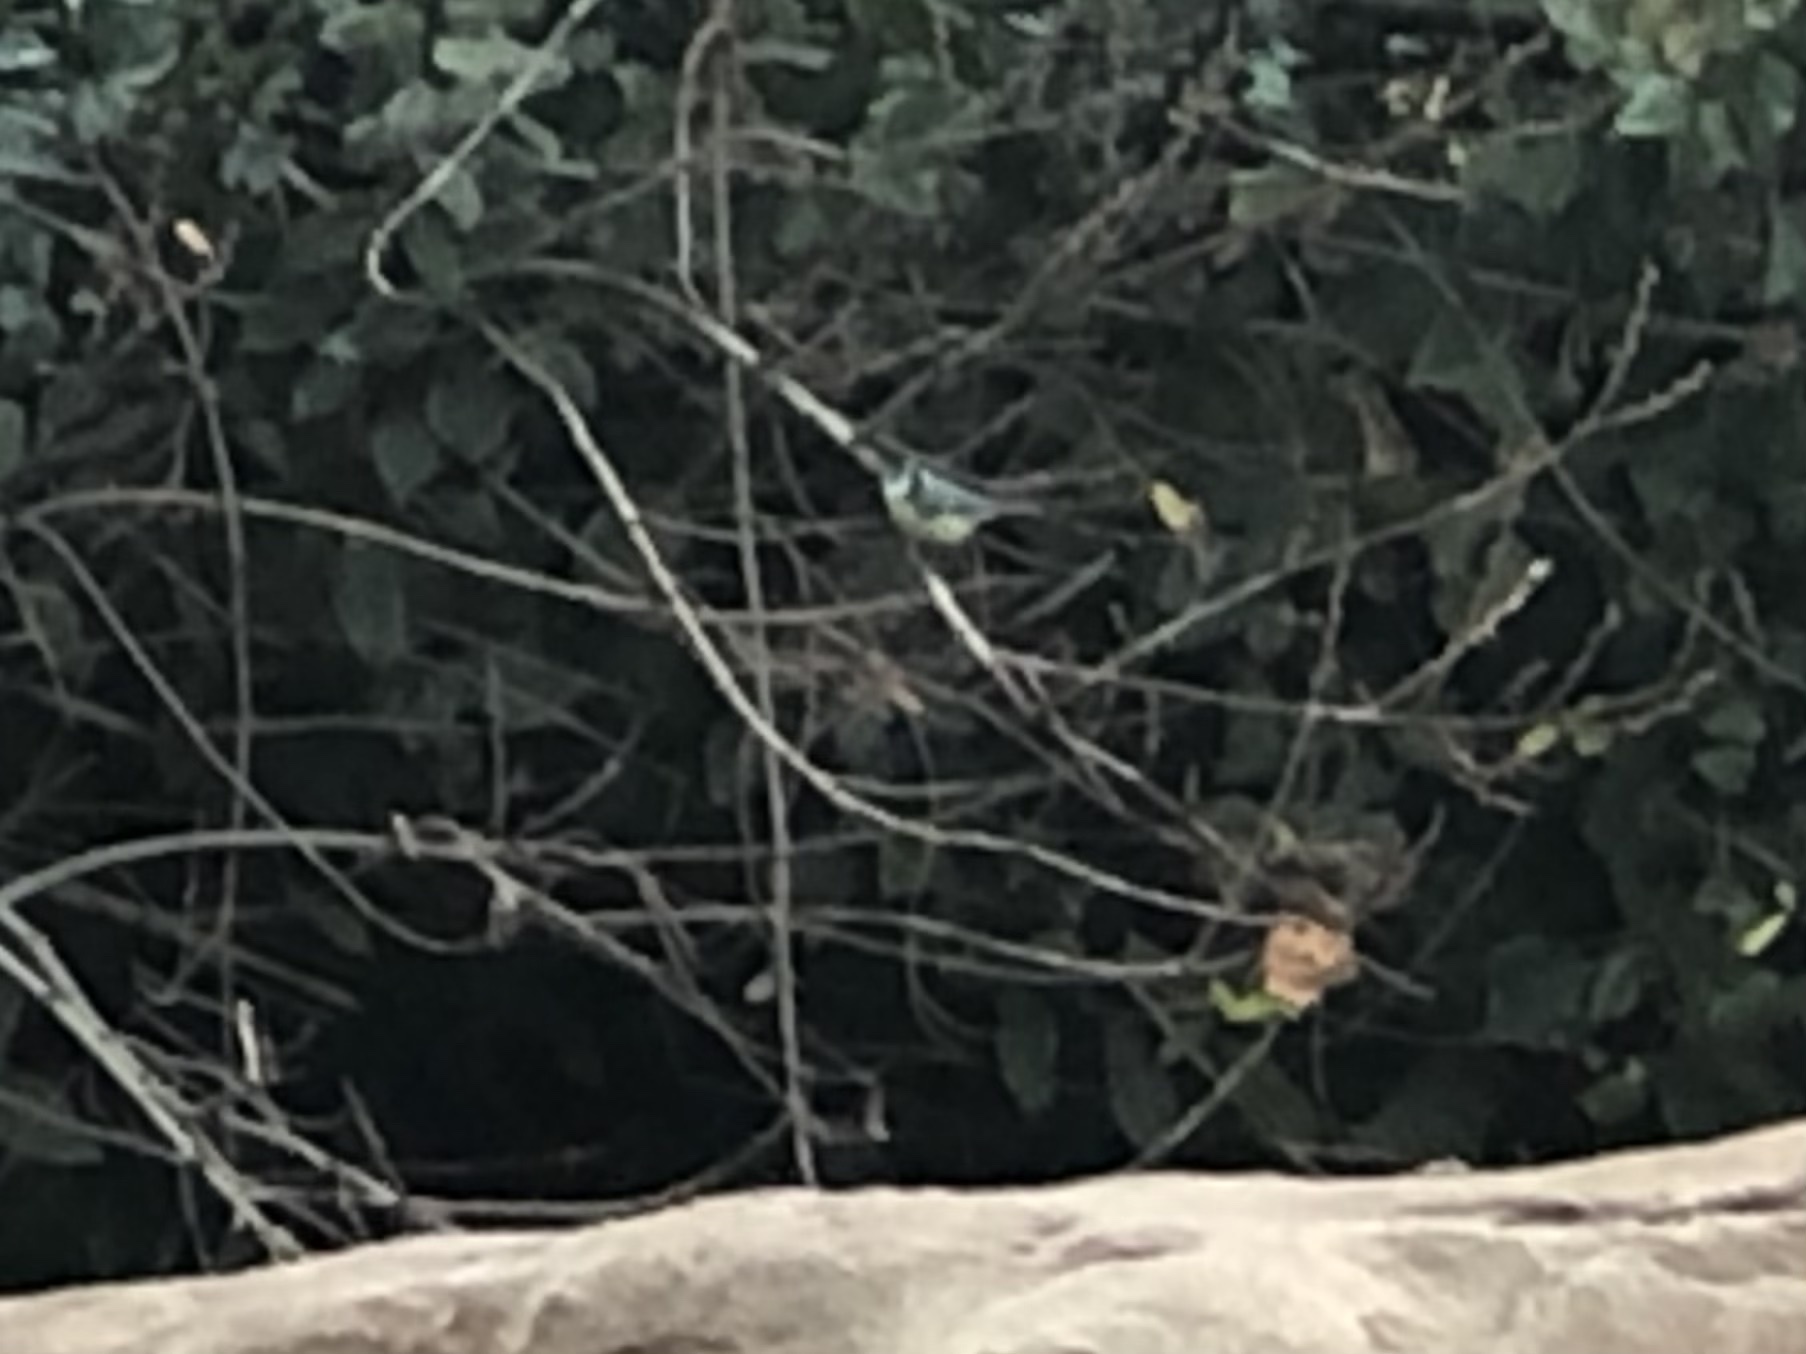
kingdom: Animalia
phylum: Chordata
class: Aves
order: Passeriformes
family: Paridae
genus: Parus
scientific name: Parus major
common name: Great tit
